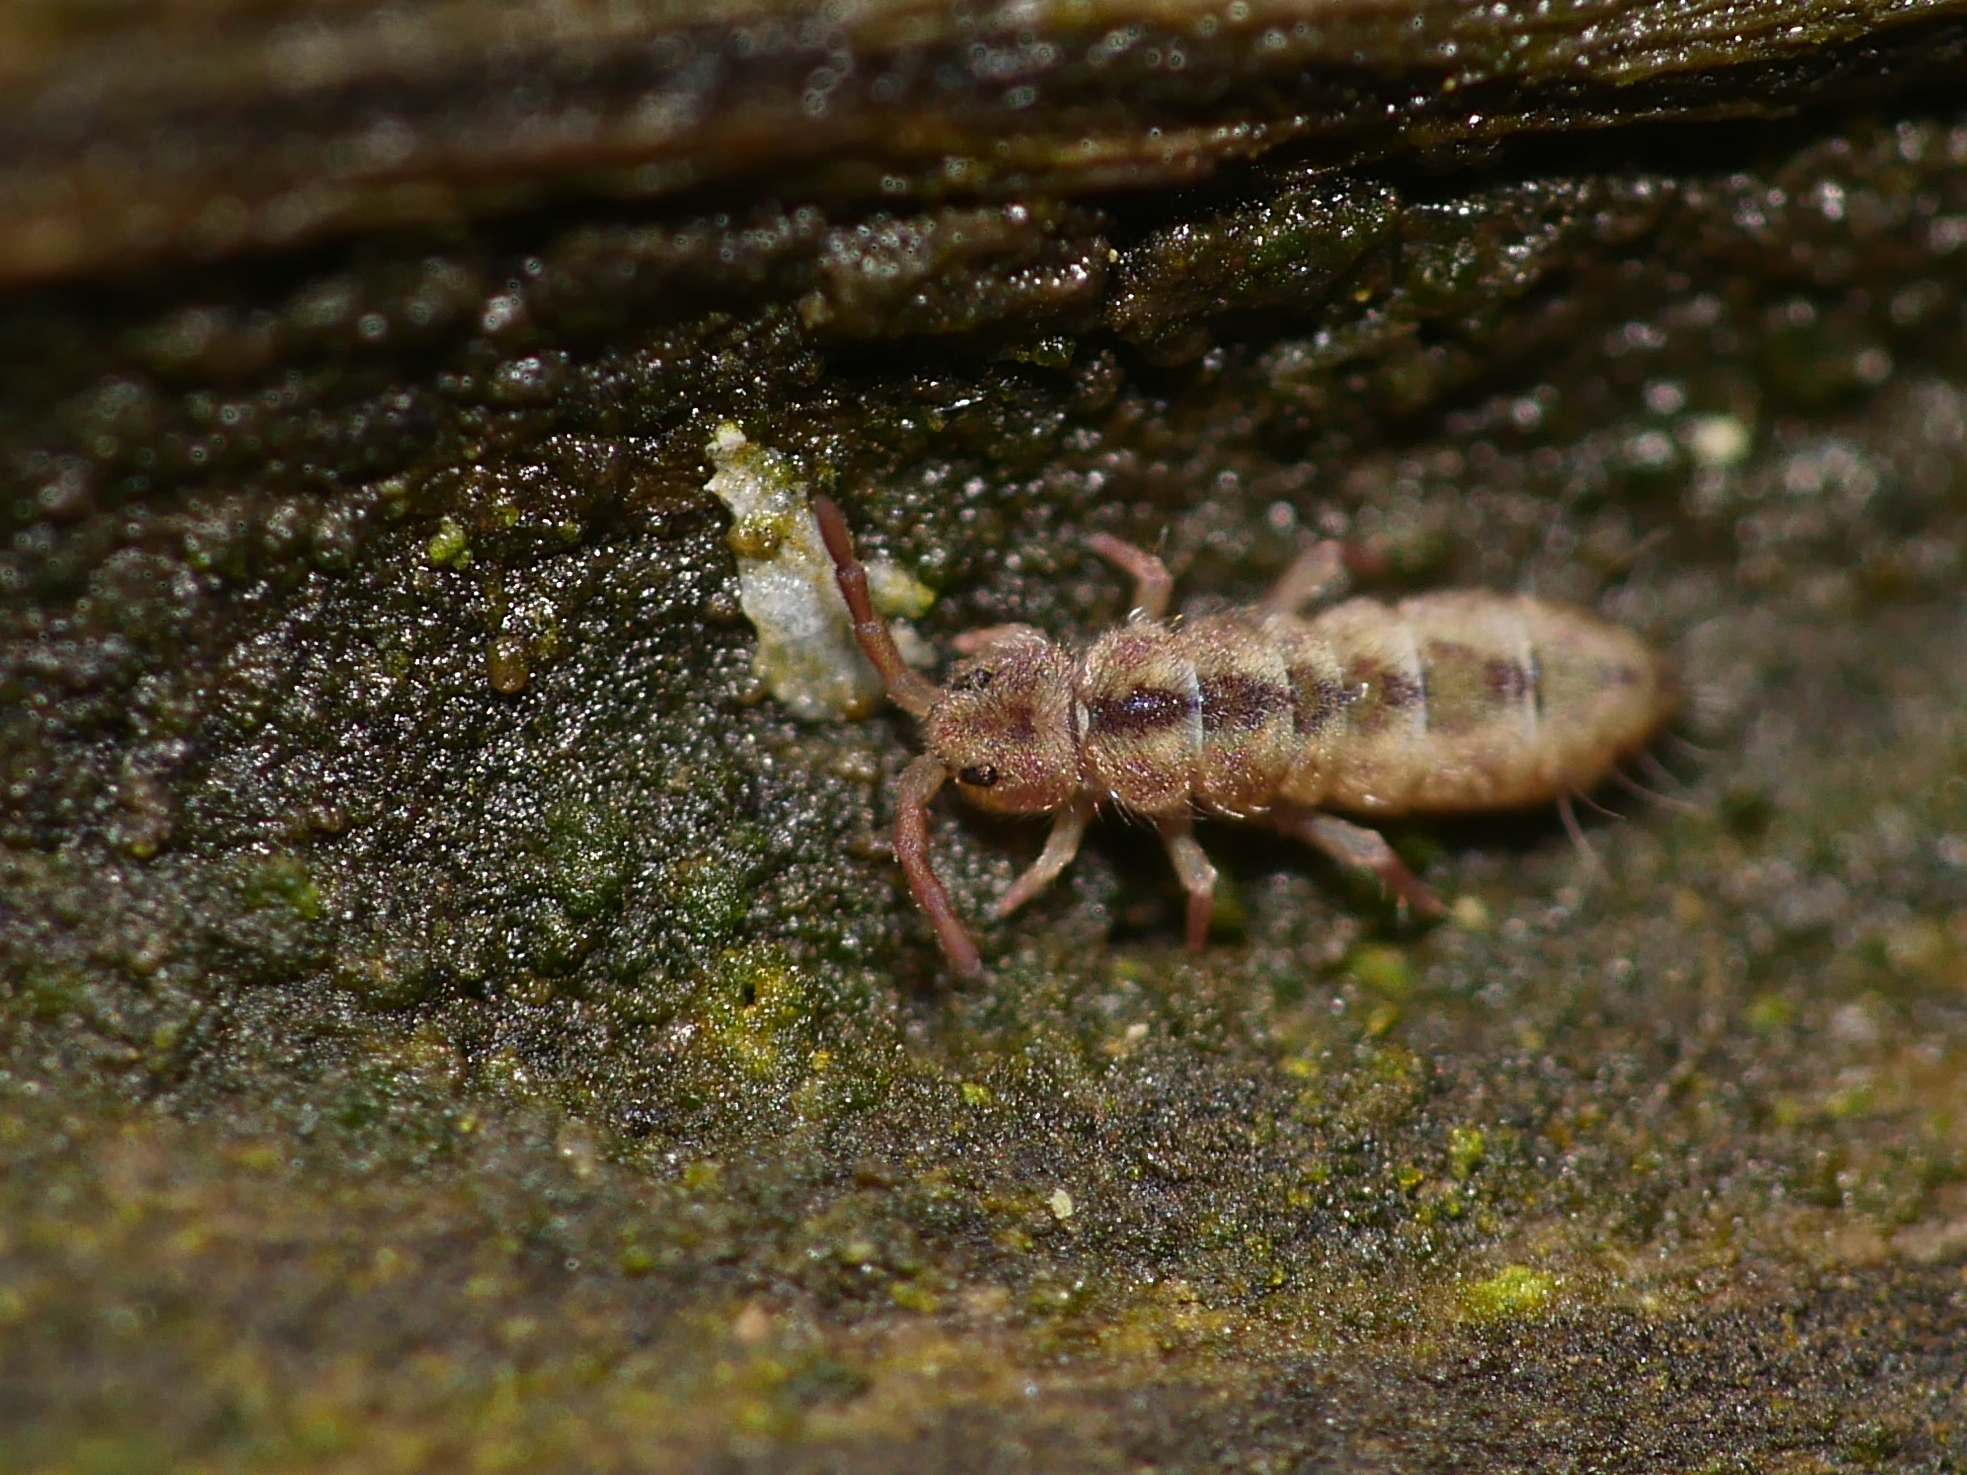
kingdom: Animalia
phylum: Arthropoda
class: Collembola
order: Entomobryomorpha
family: Isotomidae
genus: Isotomurus
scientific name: Isotomurus maculatus
